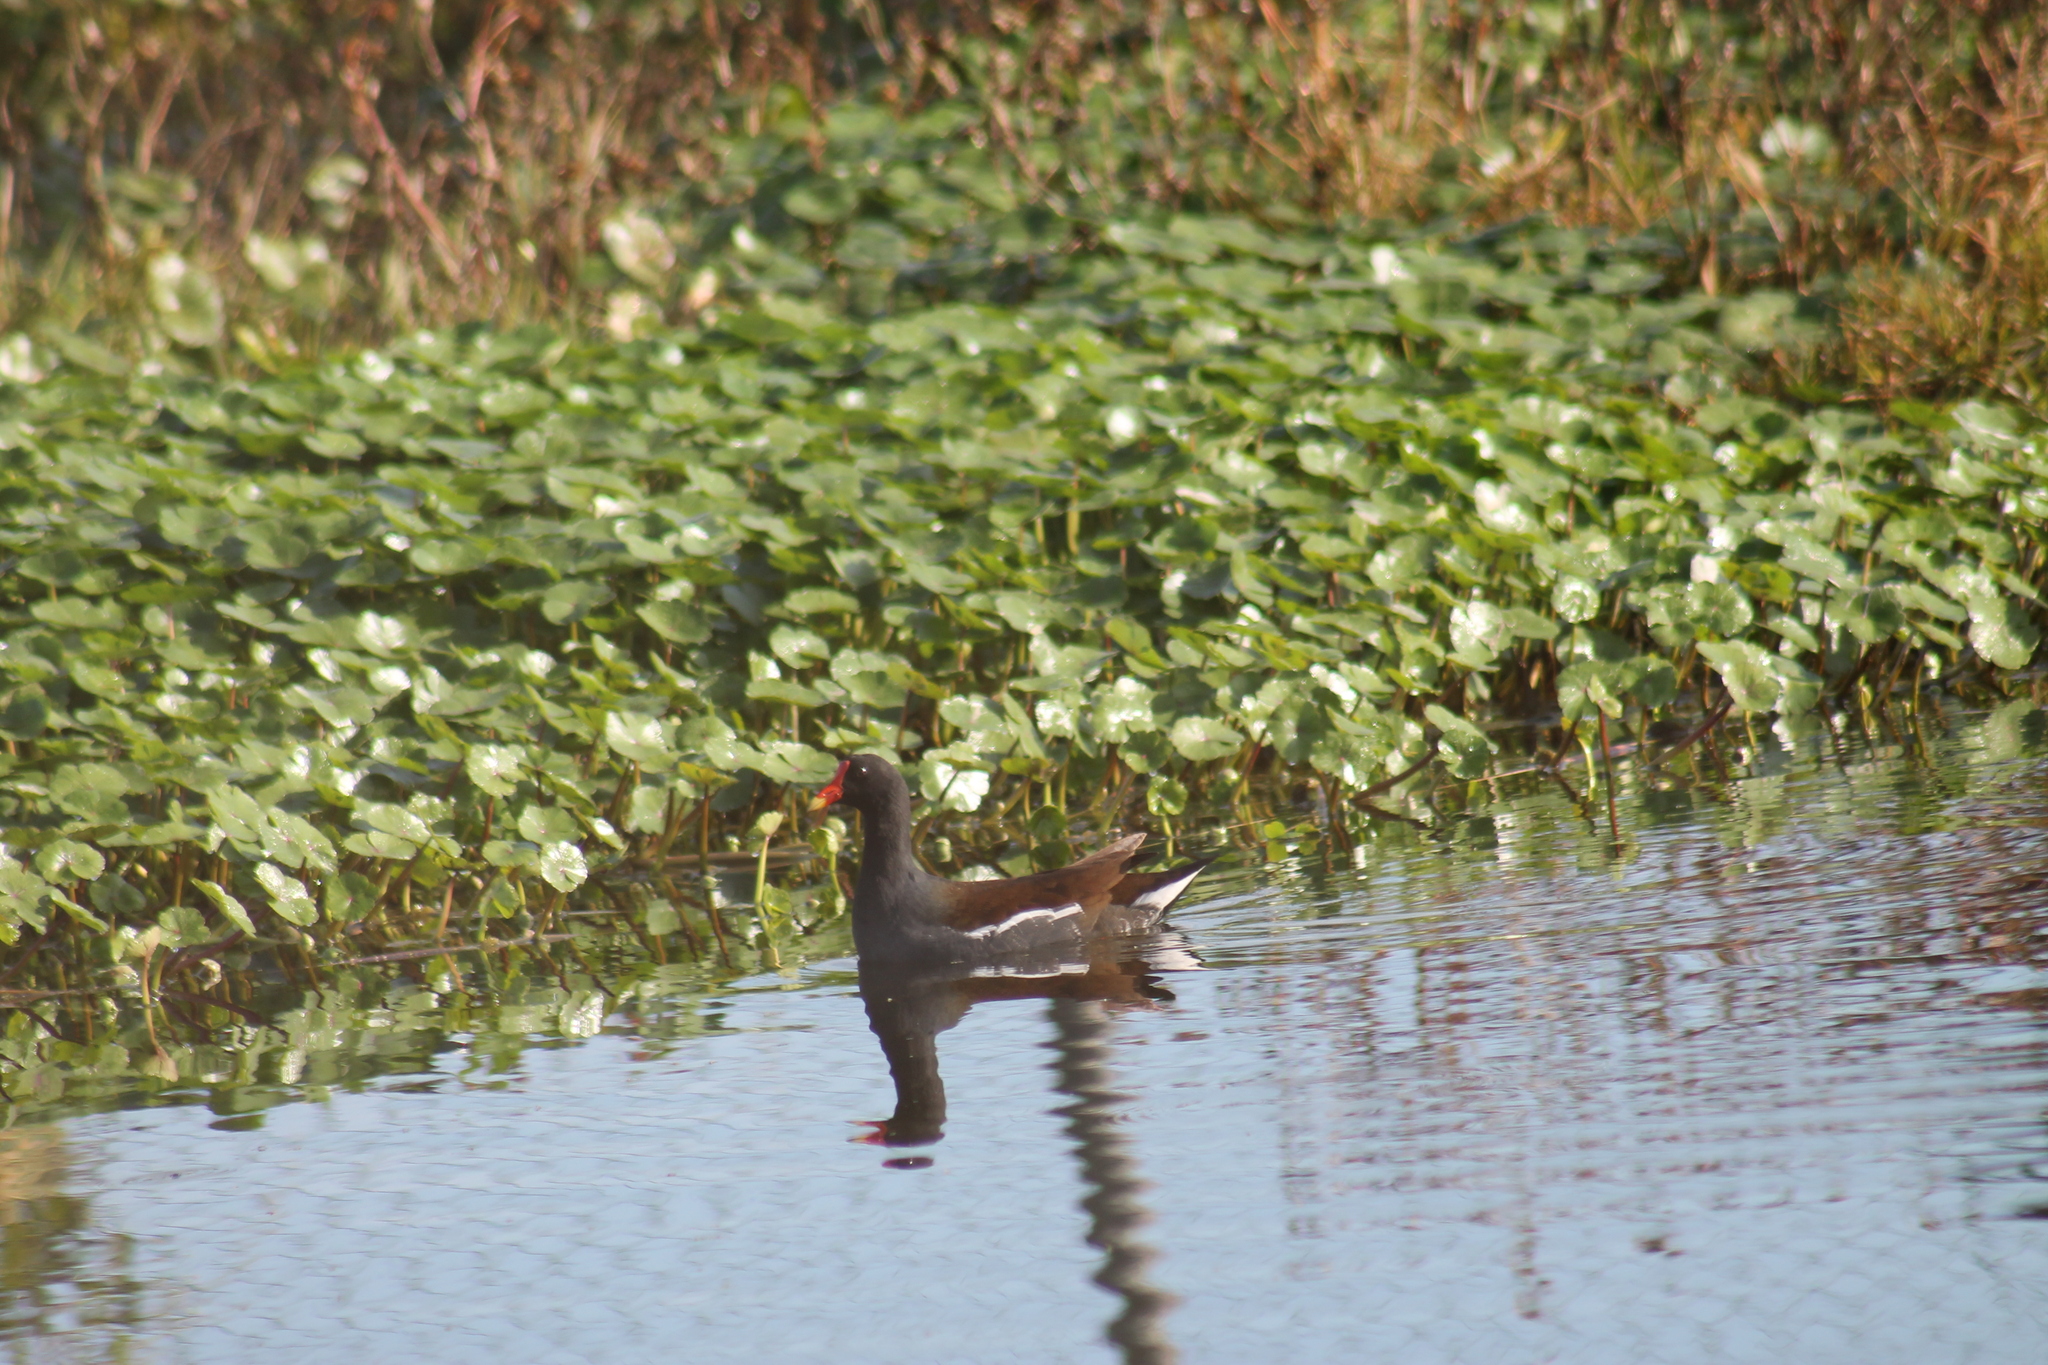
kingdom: Animalia
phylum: Chordata
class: Aves
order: Gruiformes
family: Rallidae
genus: Gallinula
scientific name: Gallinula chloropus
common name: Common moorhen
